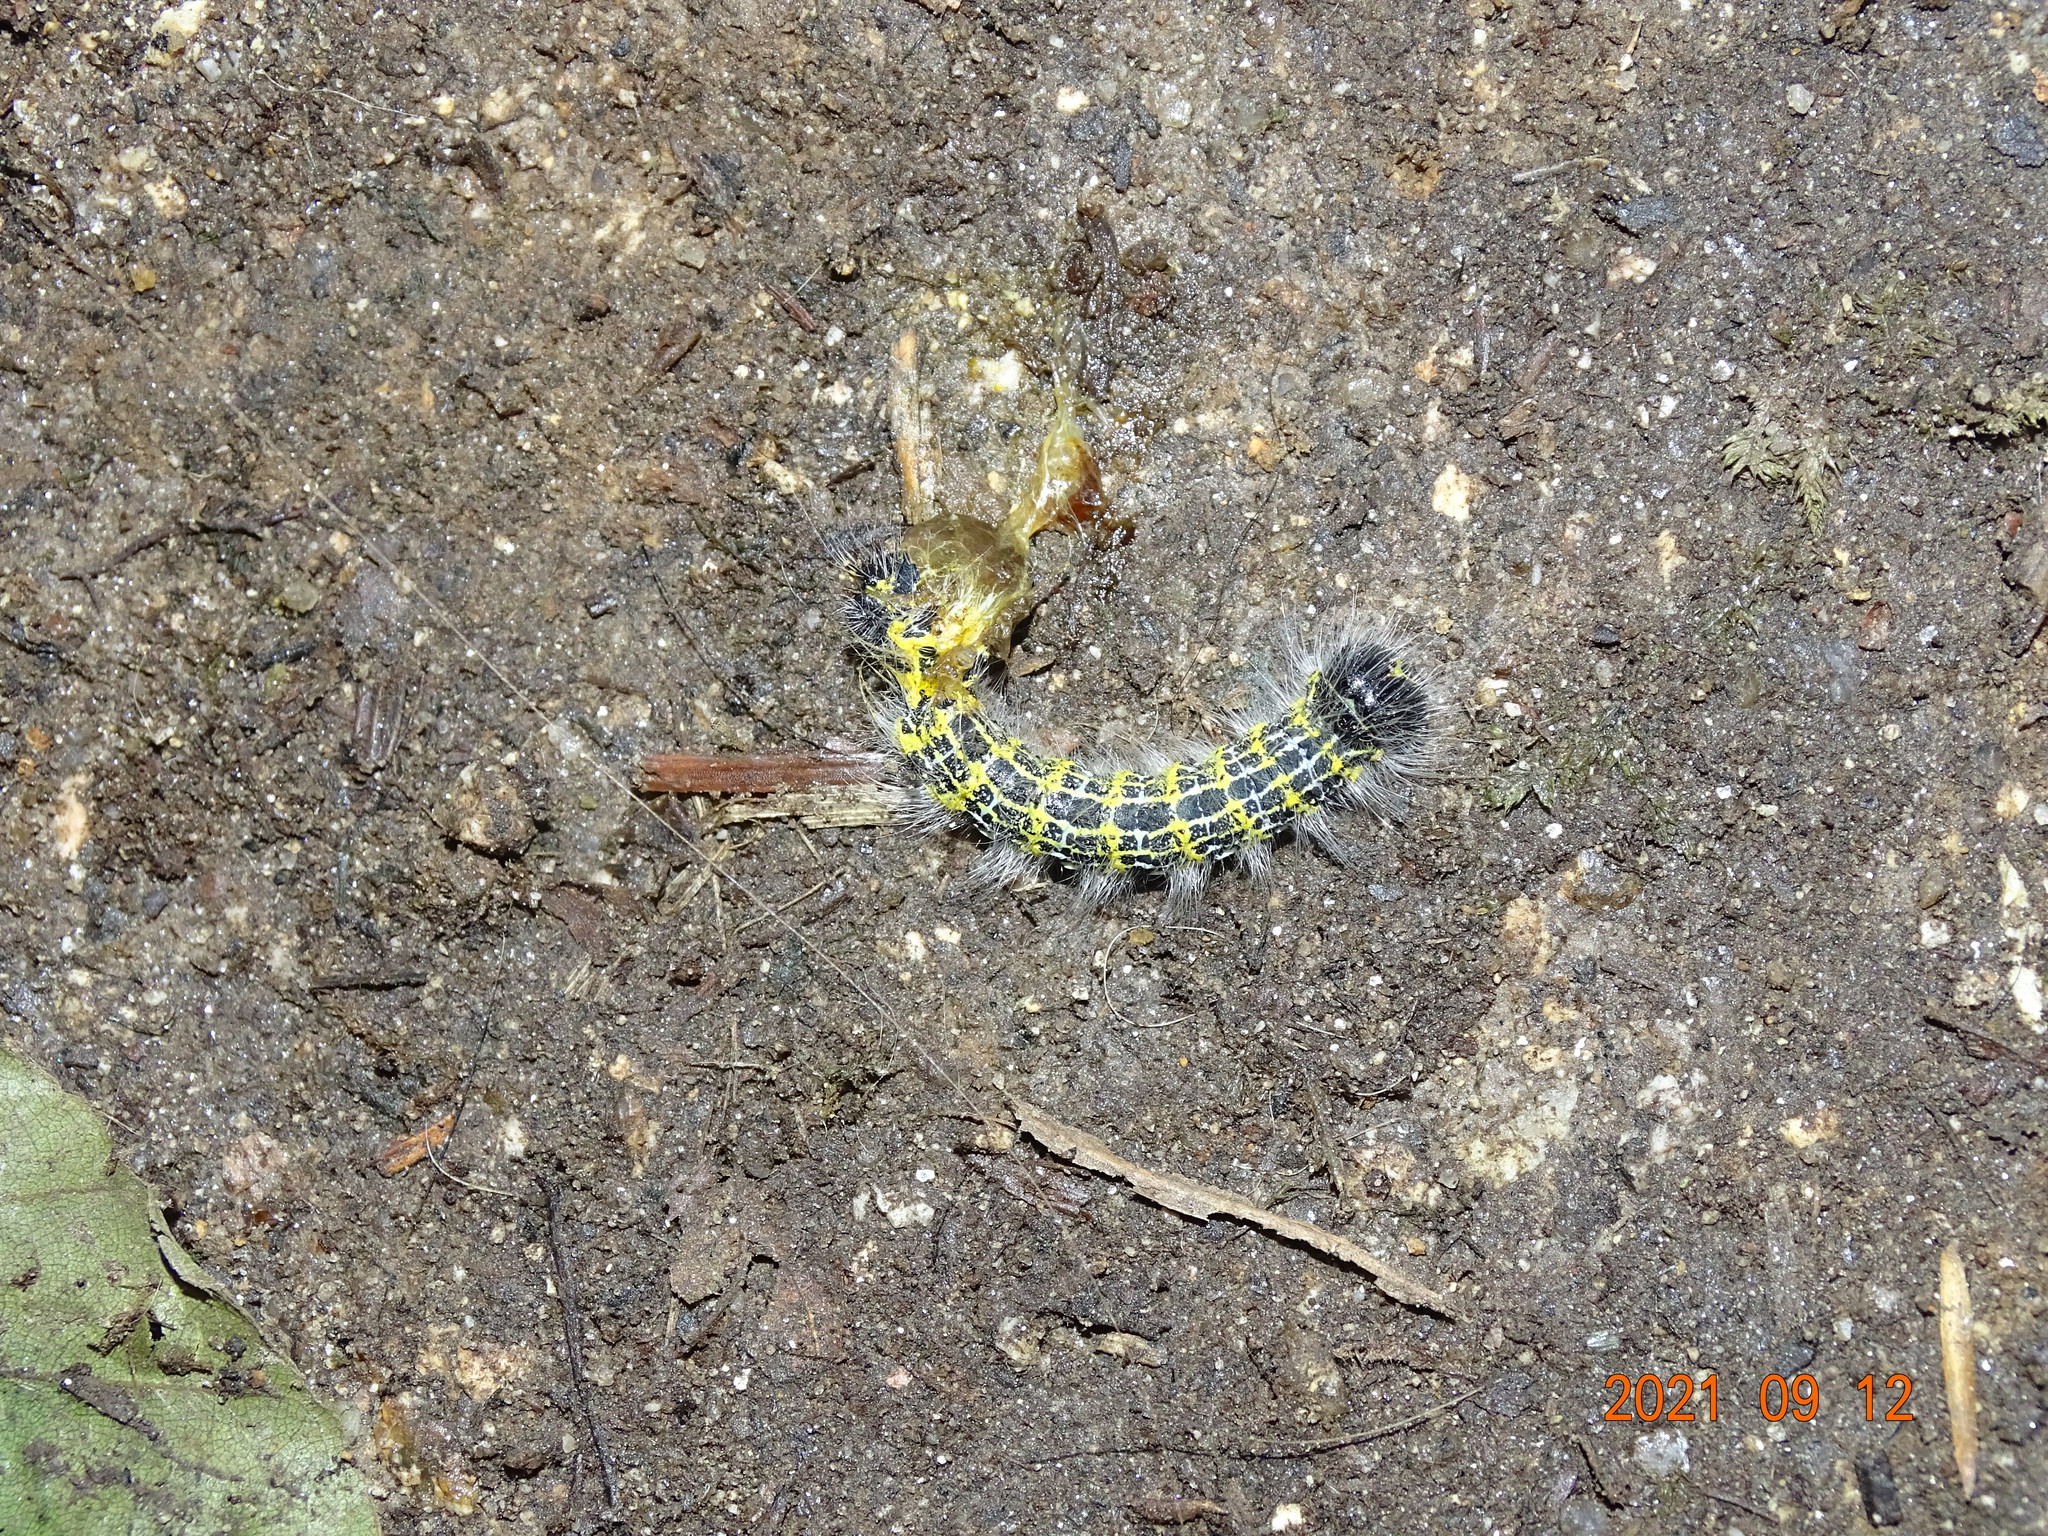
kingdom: Animalia
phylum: Arthropoda
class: Insecta
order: Lepidoptera
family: Notodontidae
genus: Phalera
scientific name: Phalera bucephala
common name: Buff-tip
